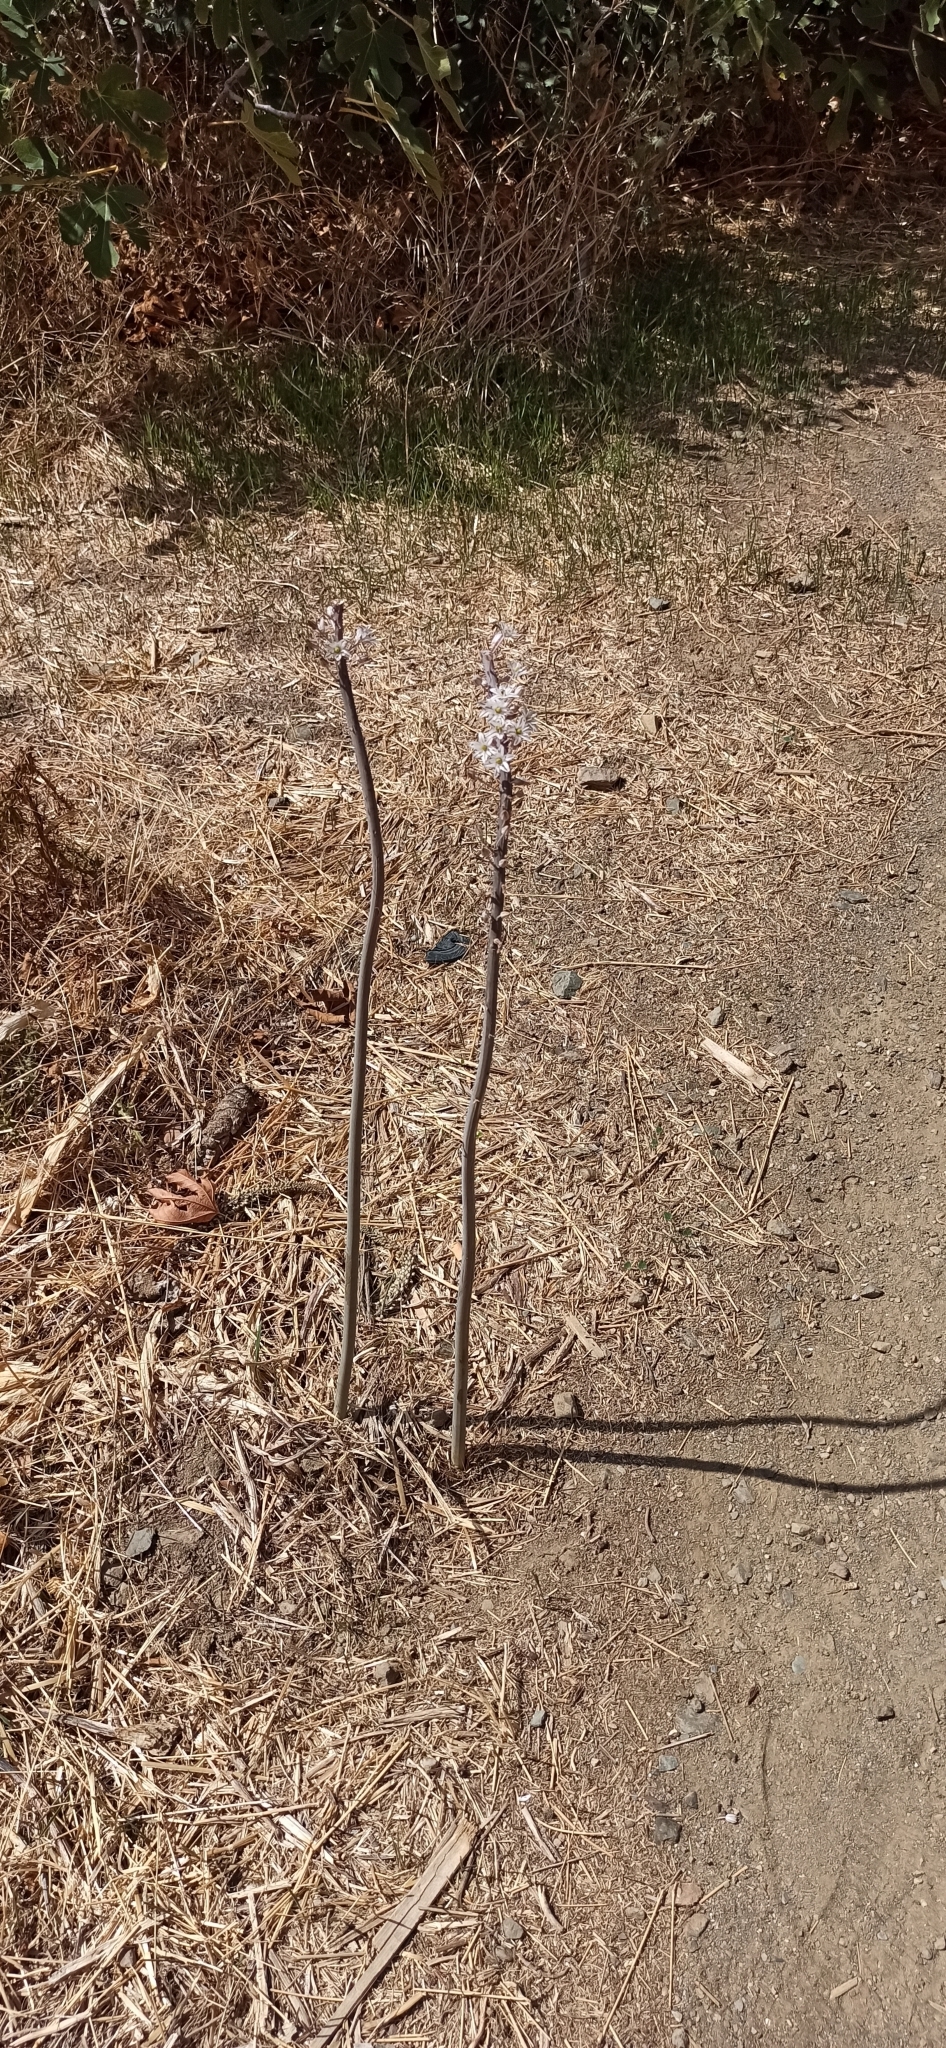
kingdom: Plantae
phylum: Tracheophyta
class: Liliopsida
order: Asparagales
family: Asparagaceae
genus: Drimia
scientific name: Drimia numidica
